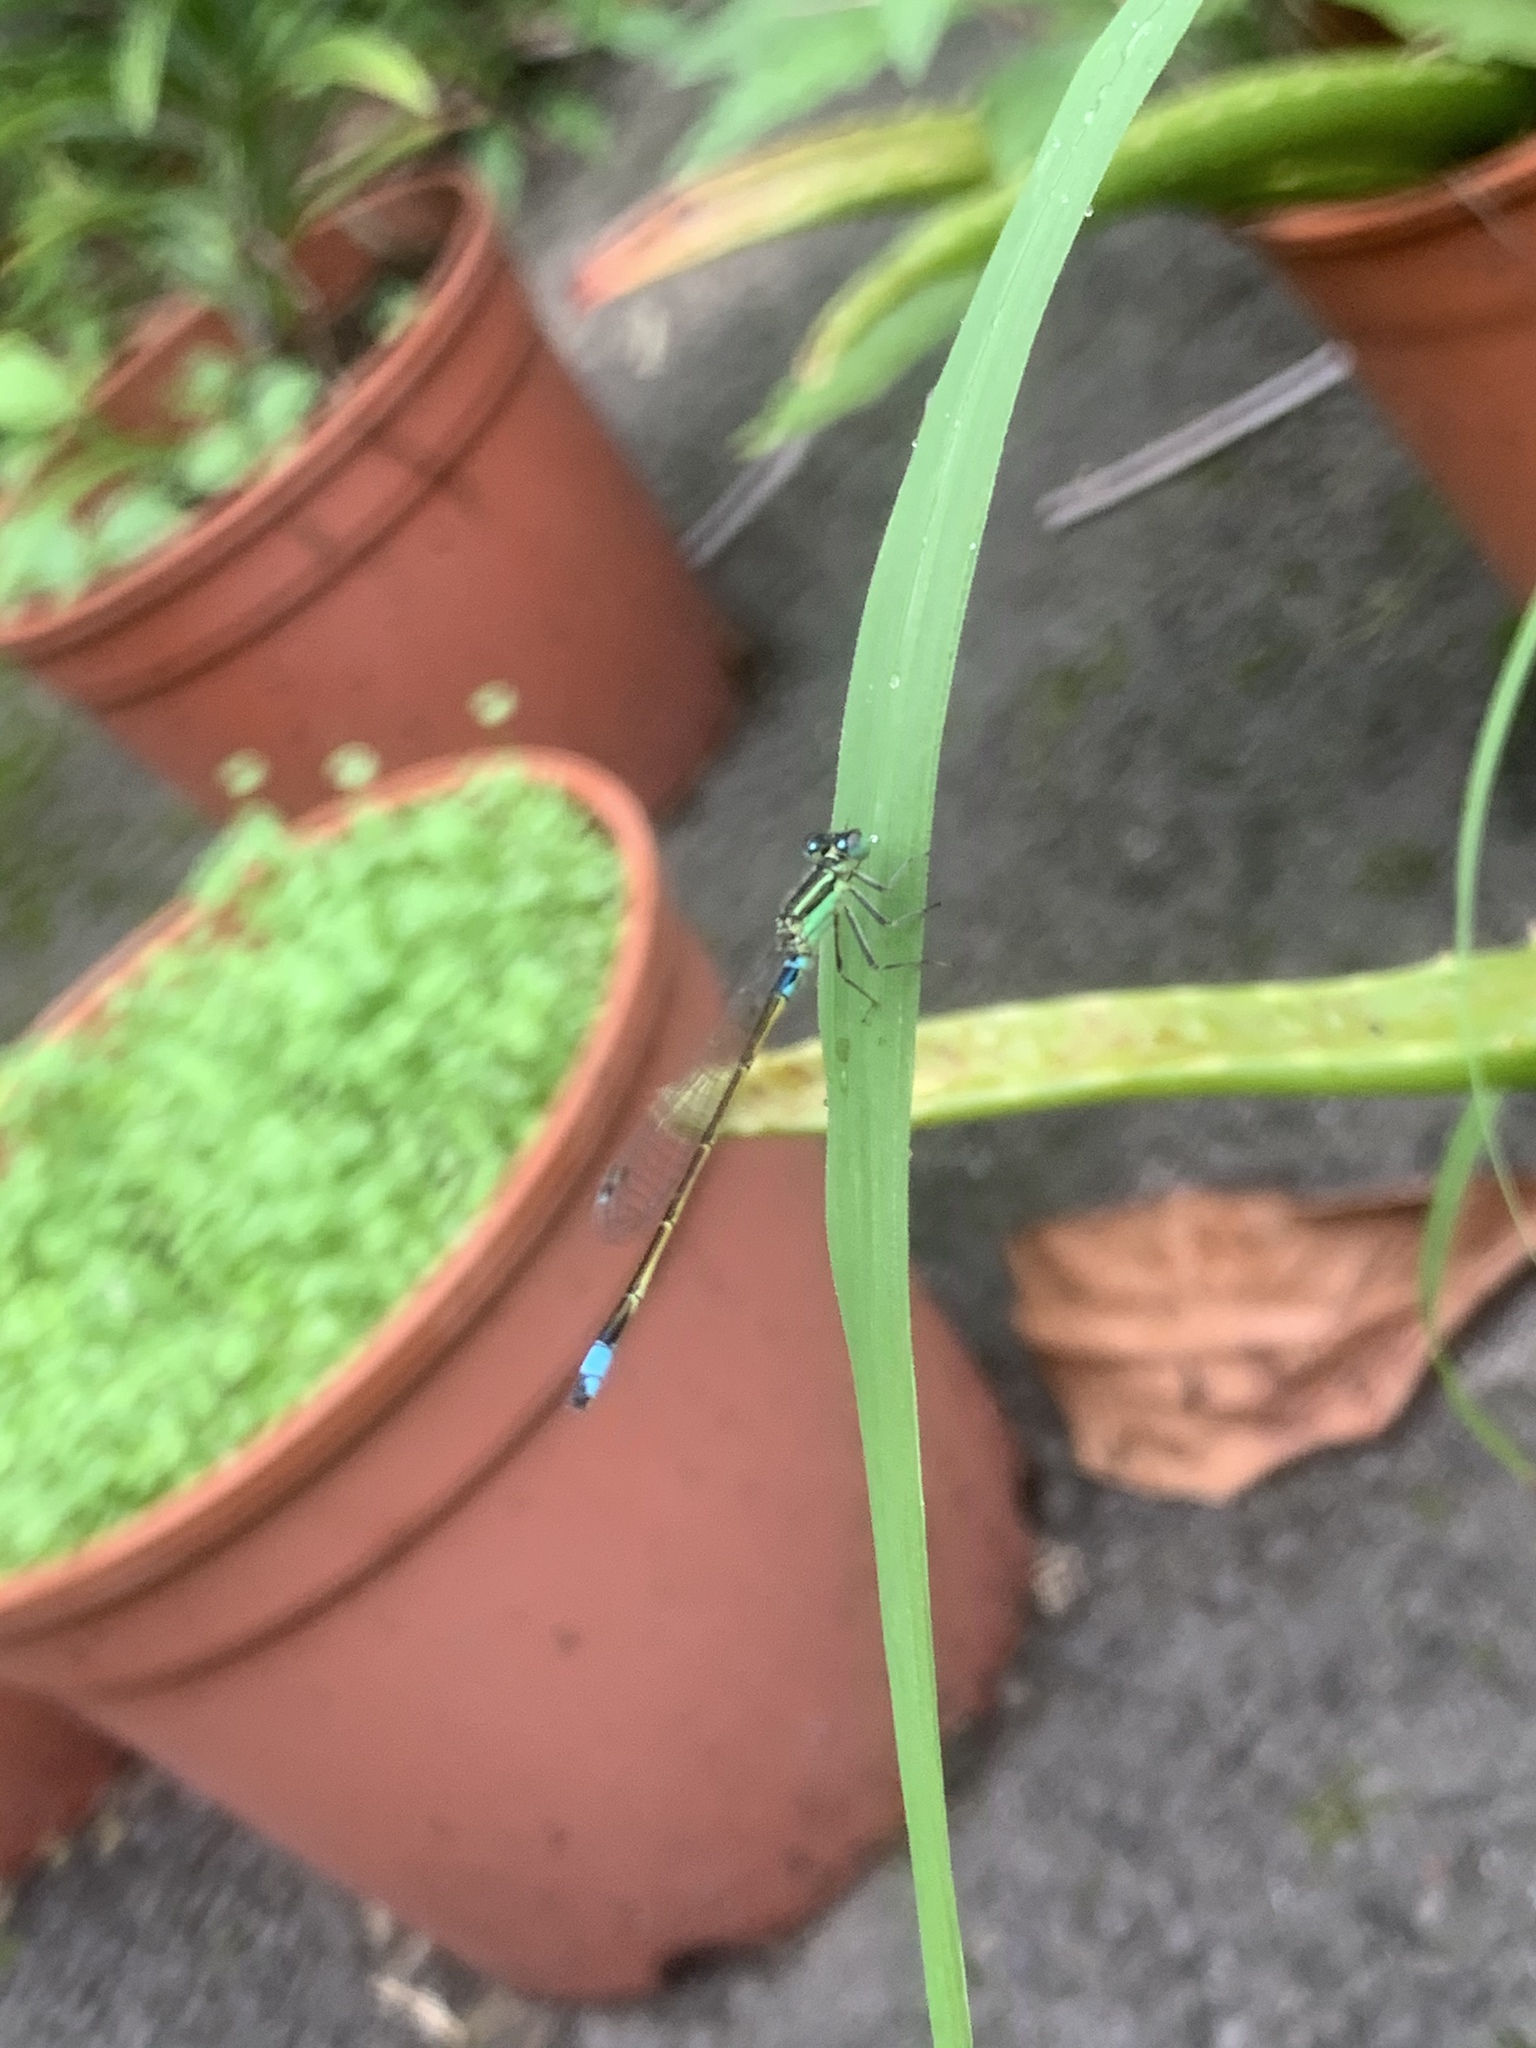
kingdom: Animalia
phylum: Arthropoda
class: Insecta
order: Odonata
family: Coenagrionidae
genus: Ischnura
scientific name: Ischnura senegalensis
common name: Tropical bluetail
